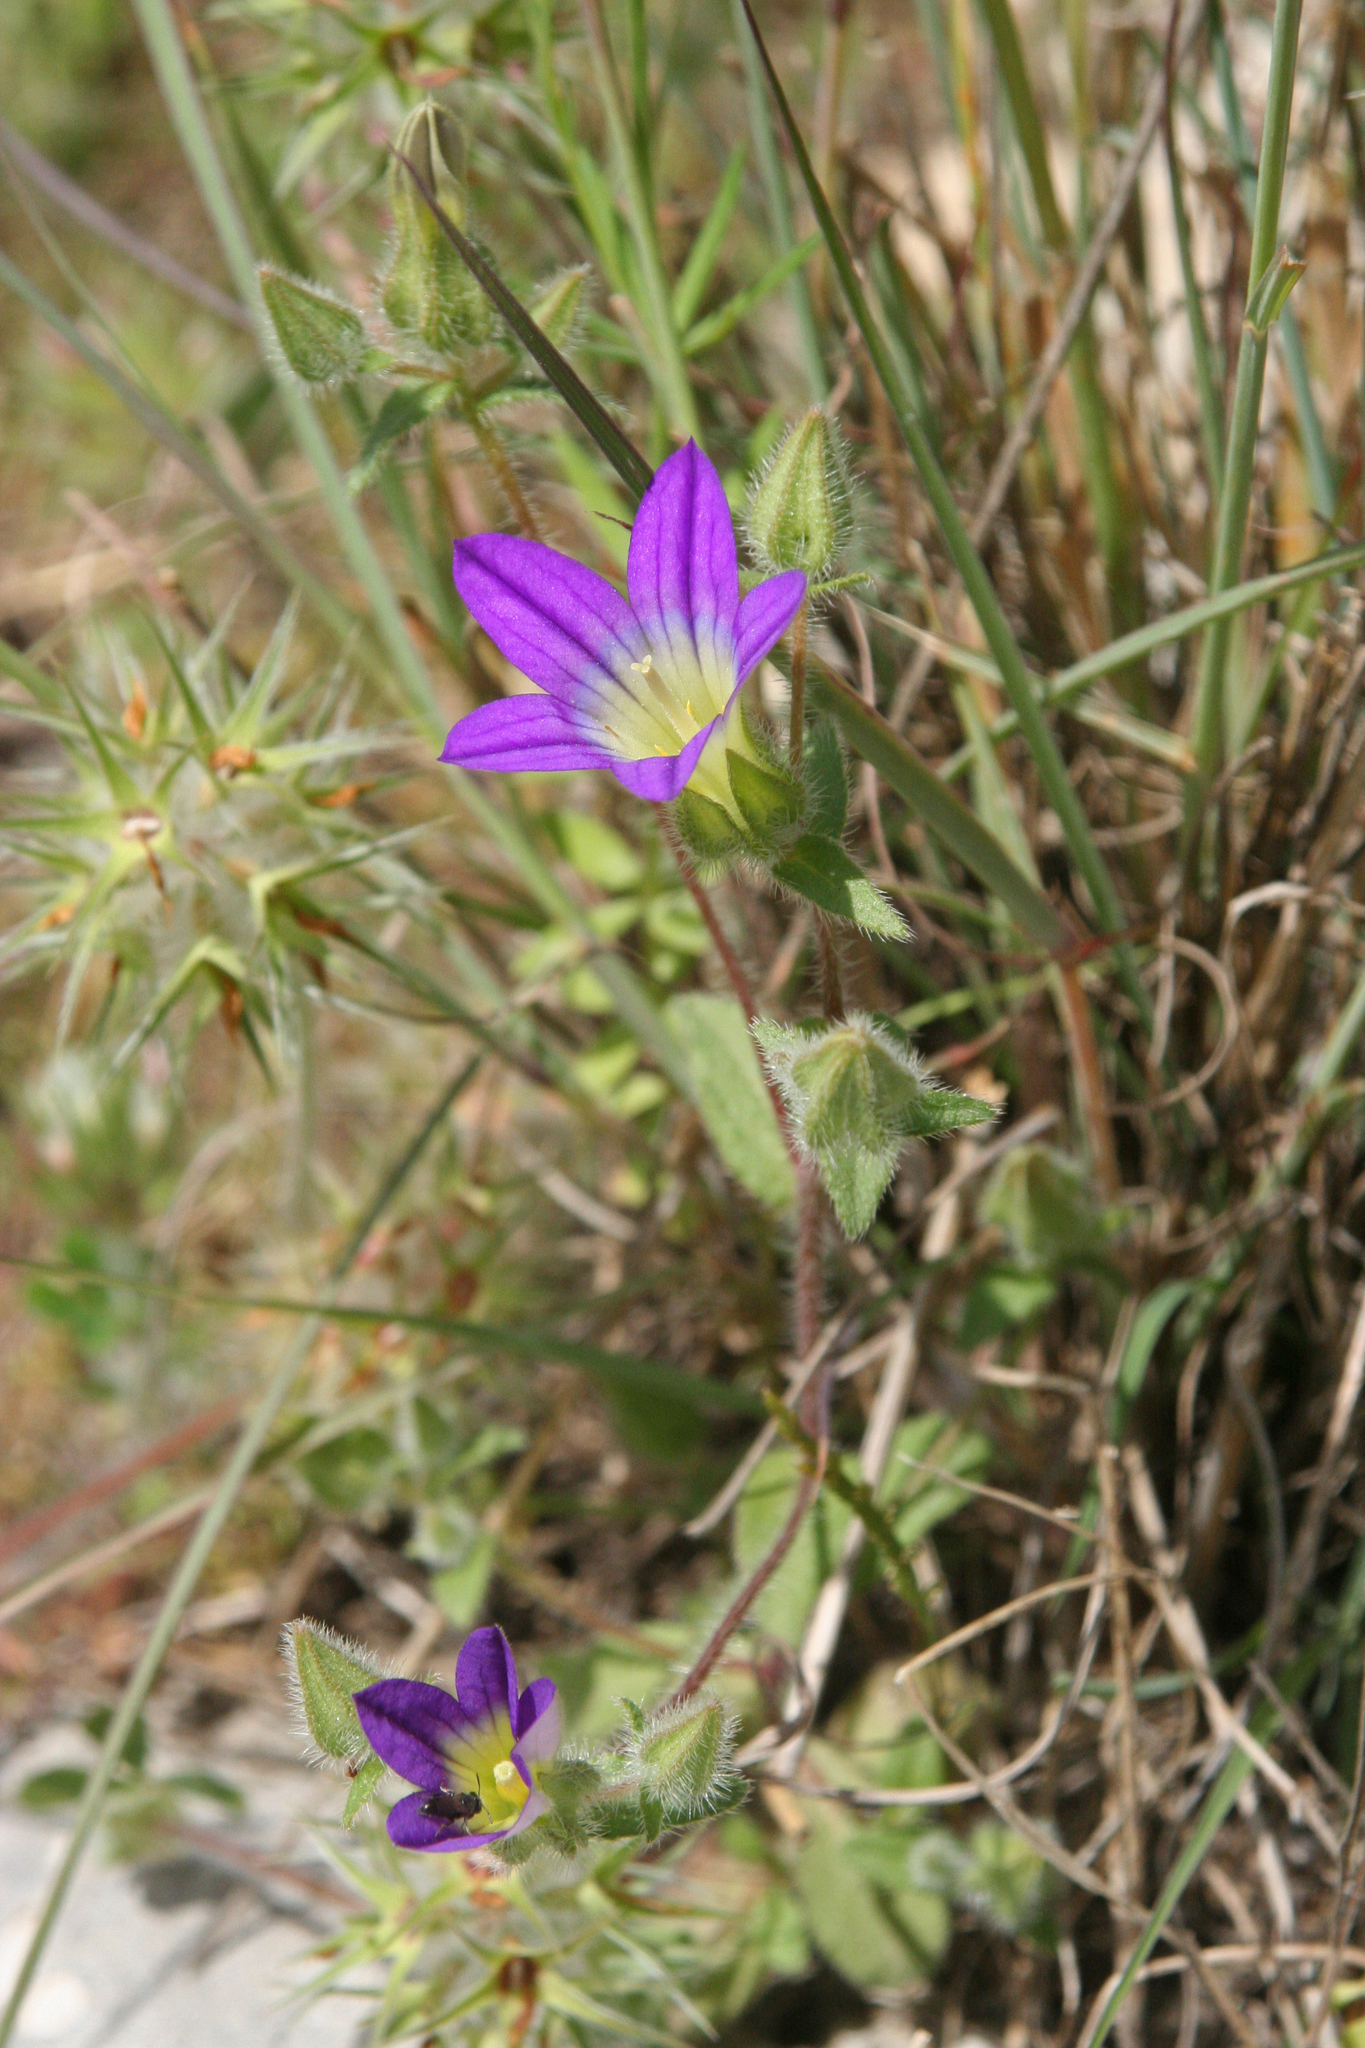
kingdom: Plantae
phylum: Tracheophyta
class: Magnoliopsida
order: Asterales
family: Campanulaceae
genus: Campanula
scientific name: Campanula hierosolymitana
